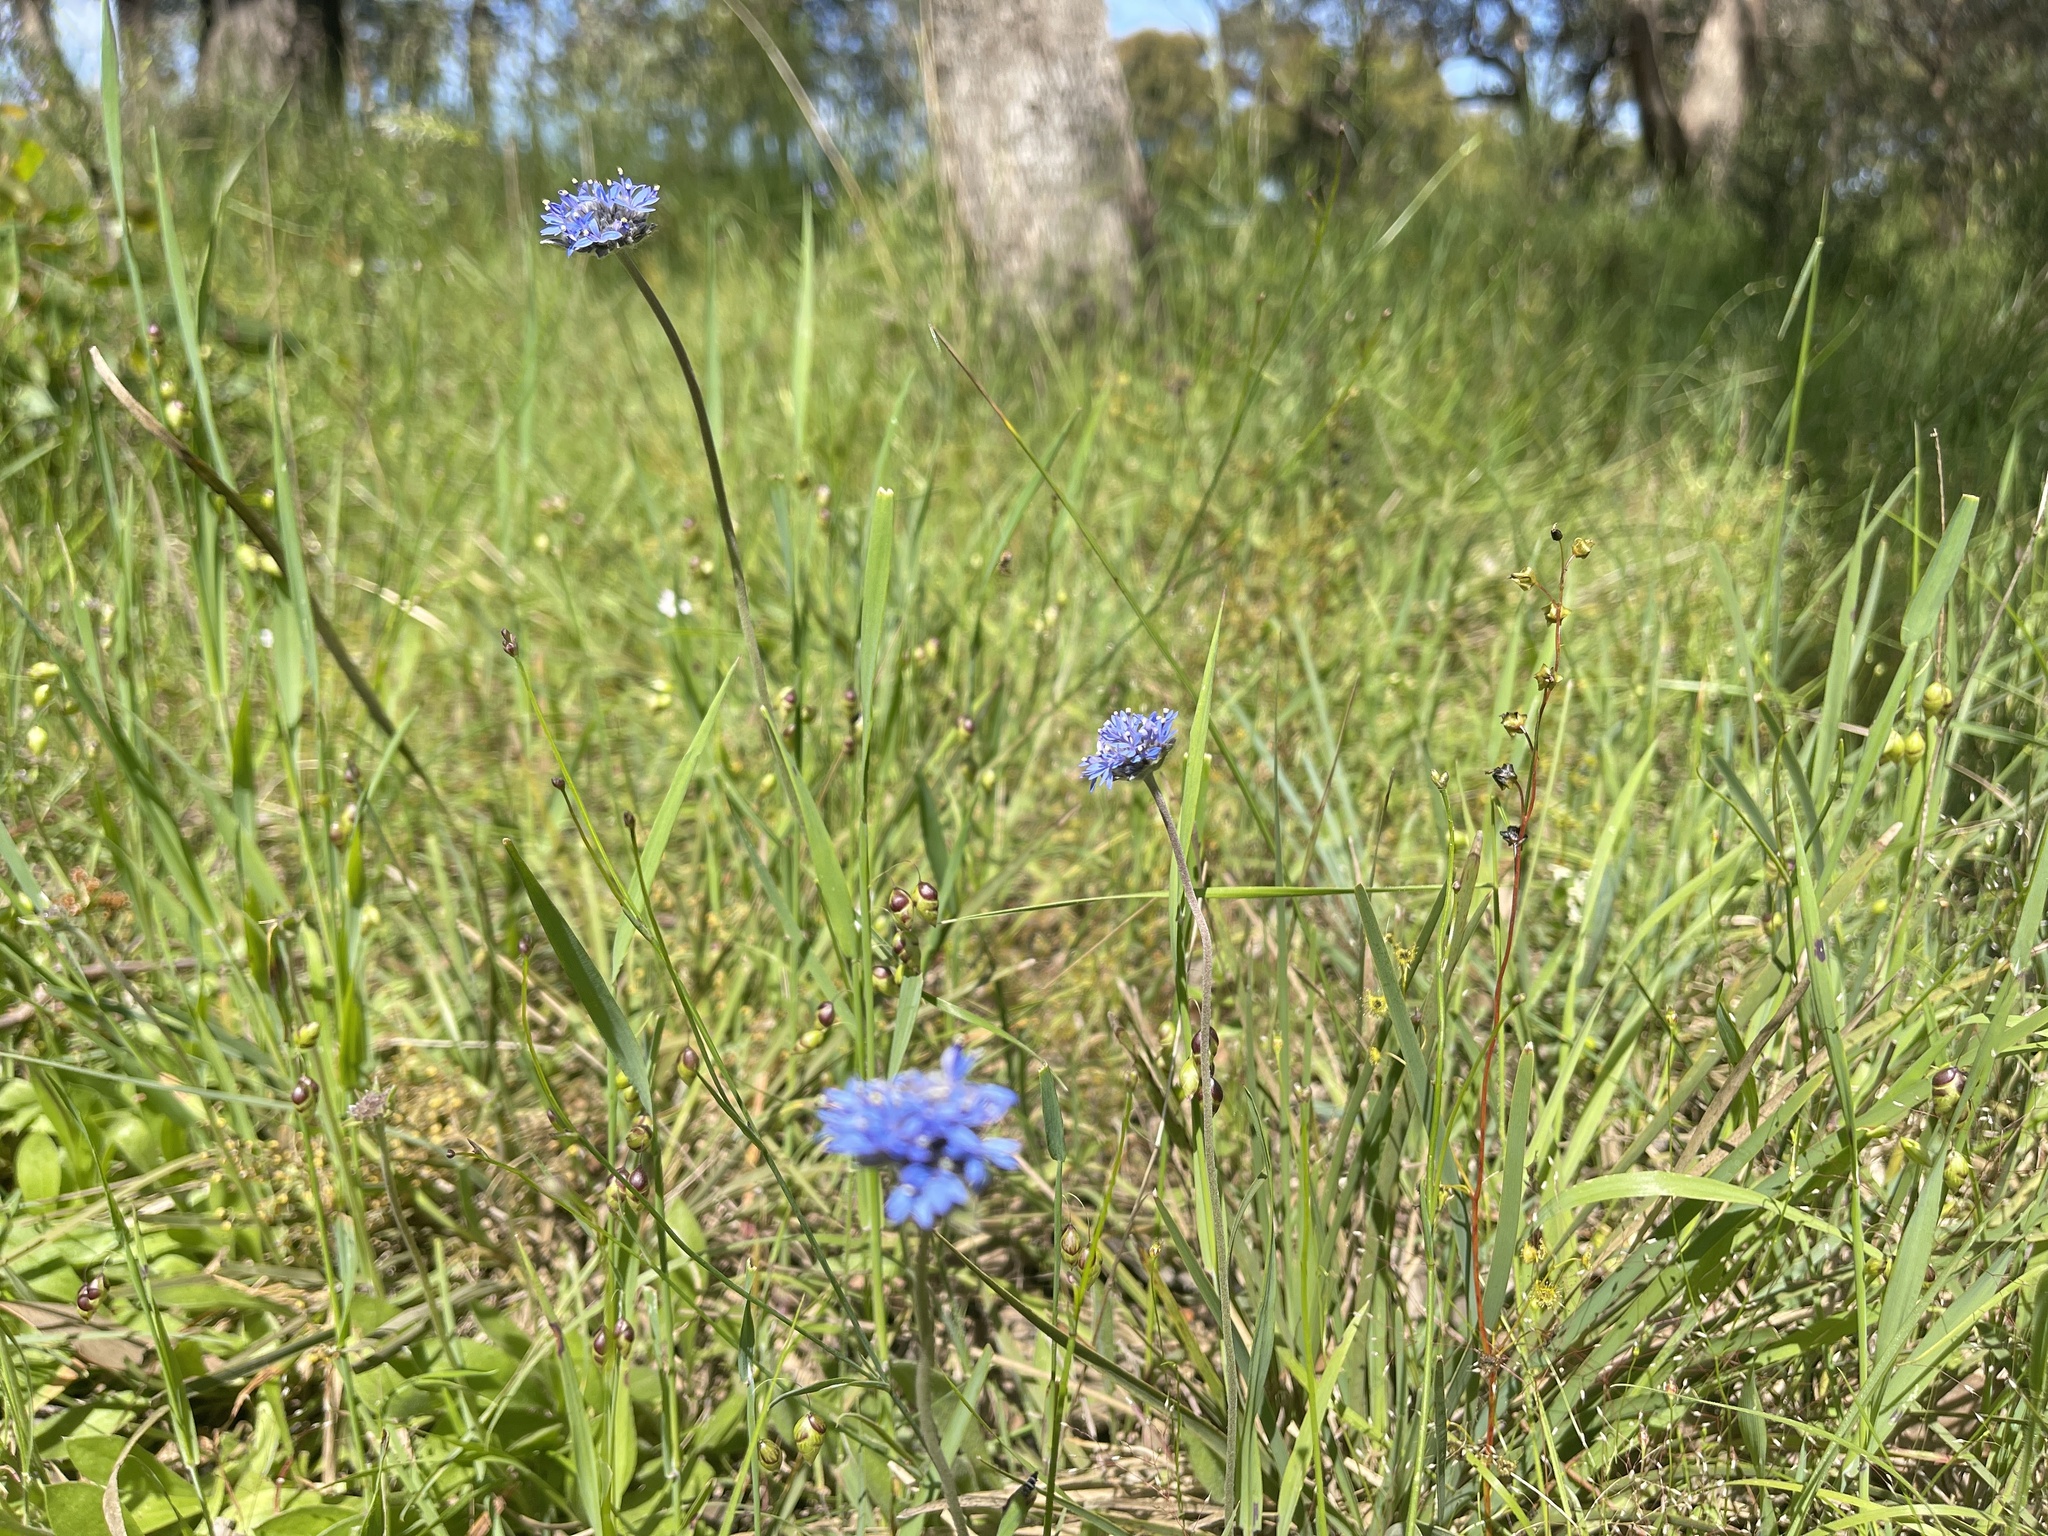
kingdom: Plantae
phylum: Tracheophyta
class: Magnoliopsida
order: Asterales
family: Goodeniaceae
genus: Brunonia
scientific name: Brunonia australis
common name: Blue pincushion
